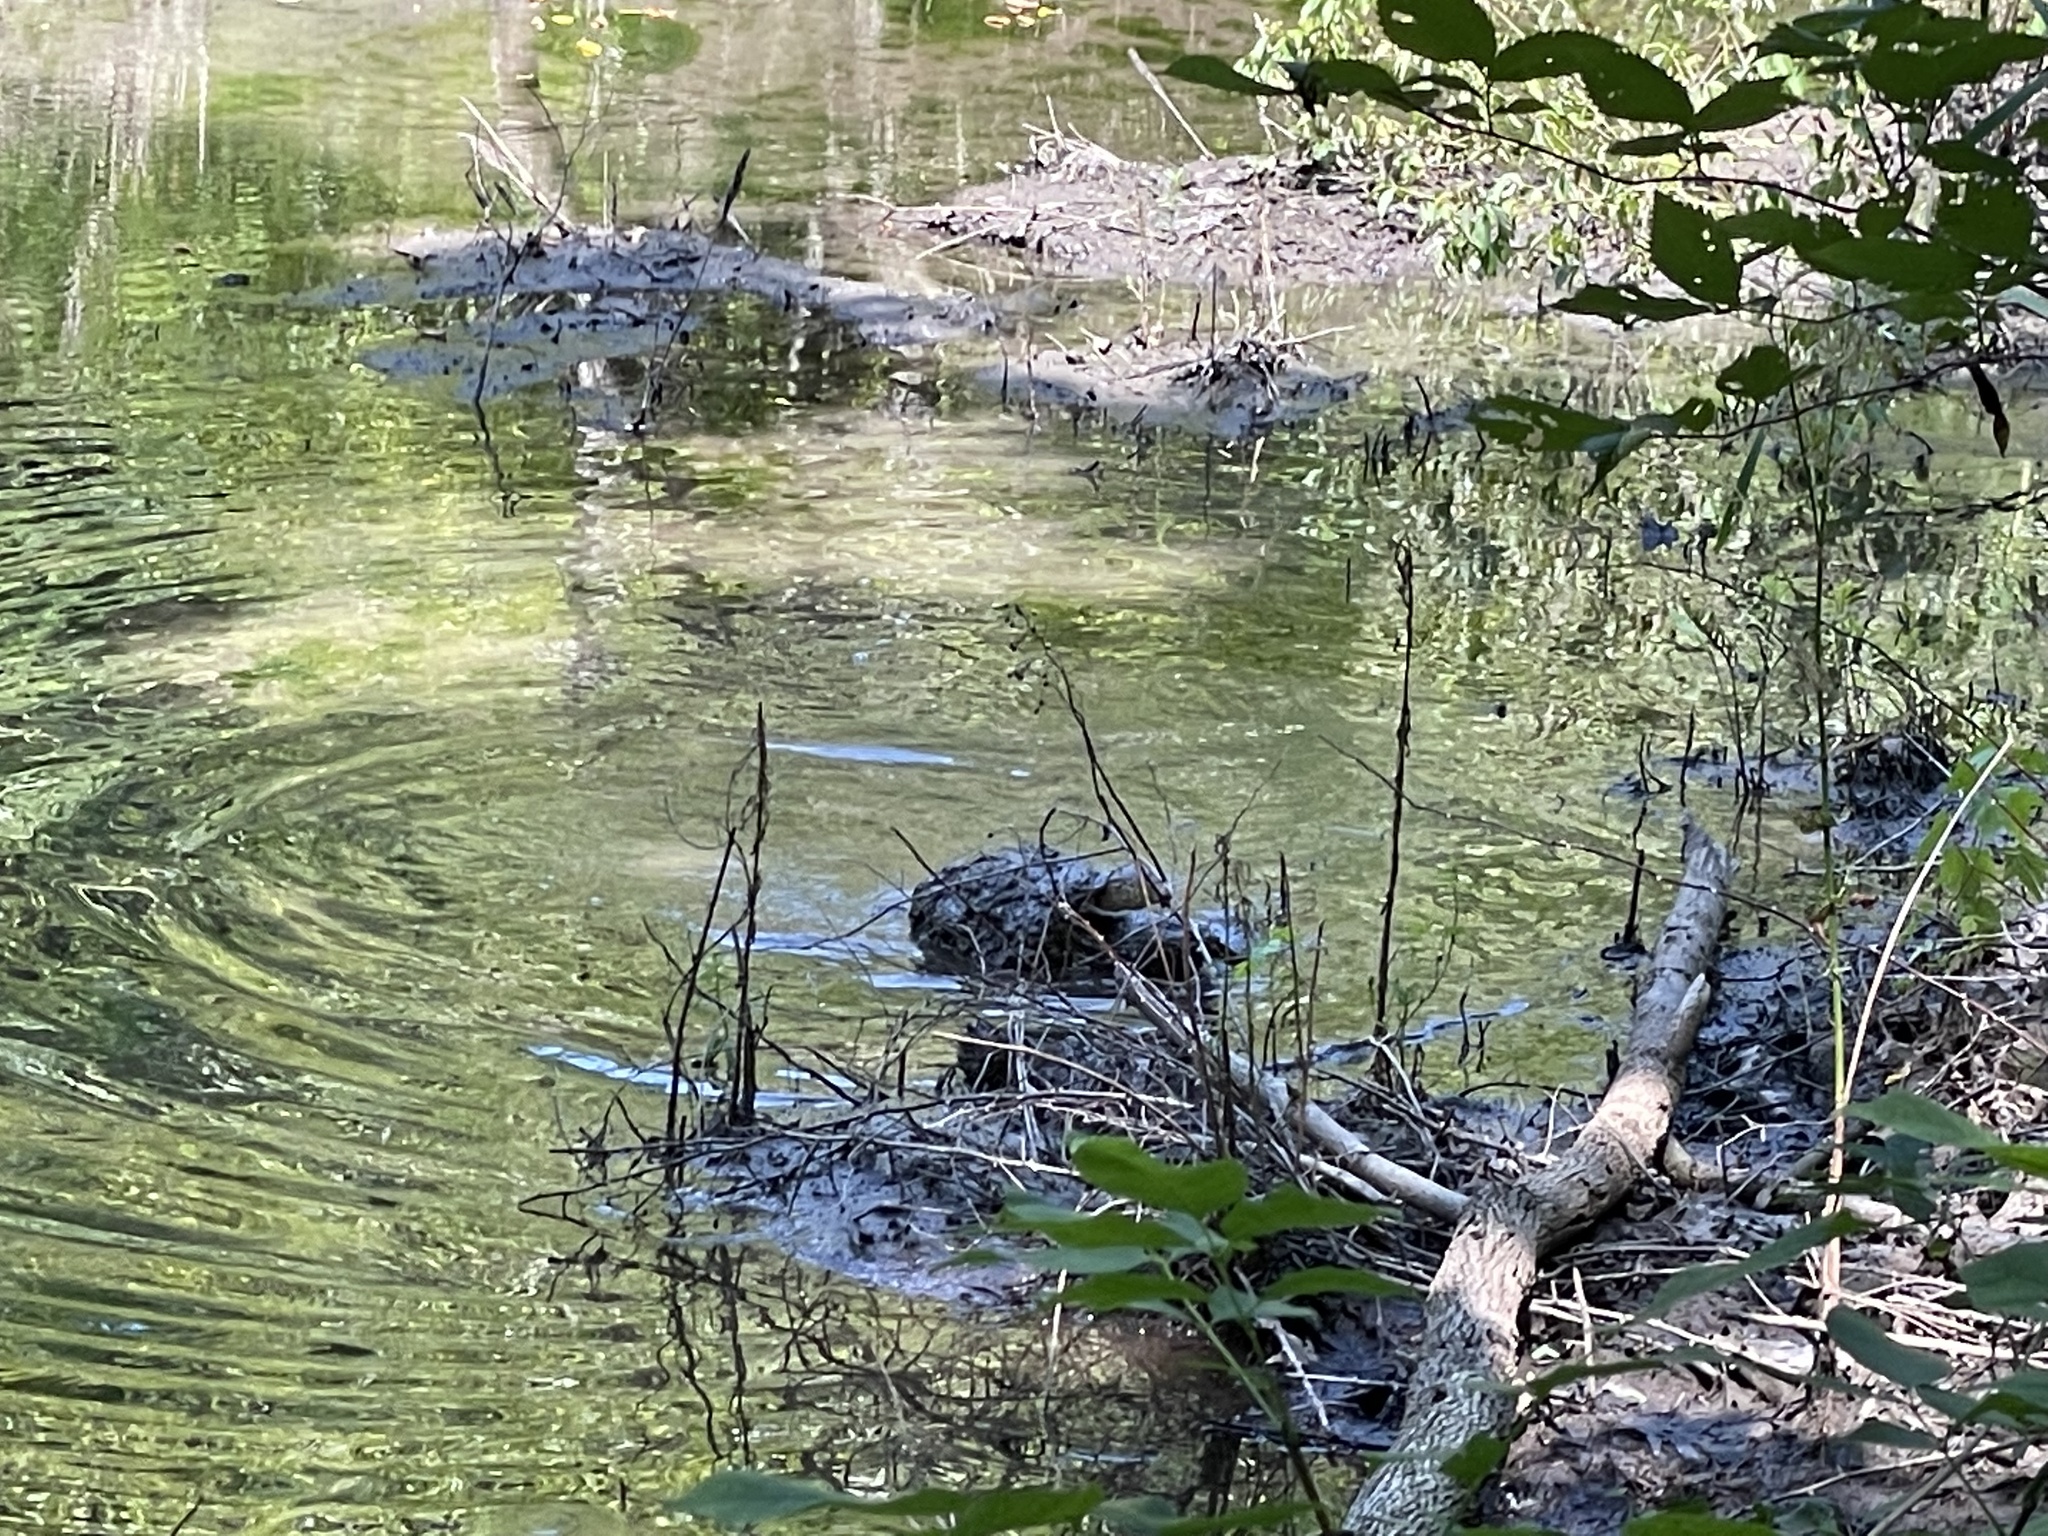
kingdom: Animalia
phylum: Chordata
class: Testudines
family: Chelydridae
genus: Chelydra
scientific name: Chelydra serpentina
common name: Common snapping turtle
